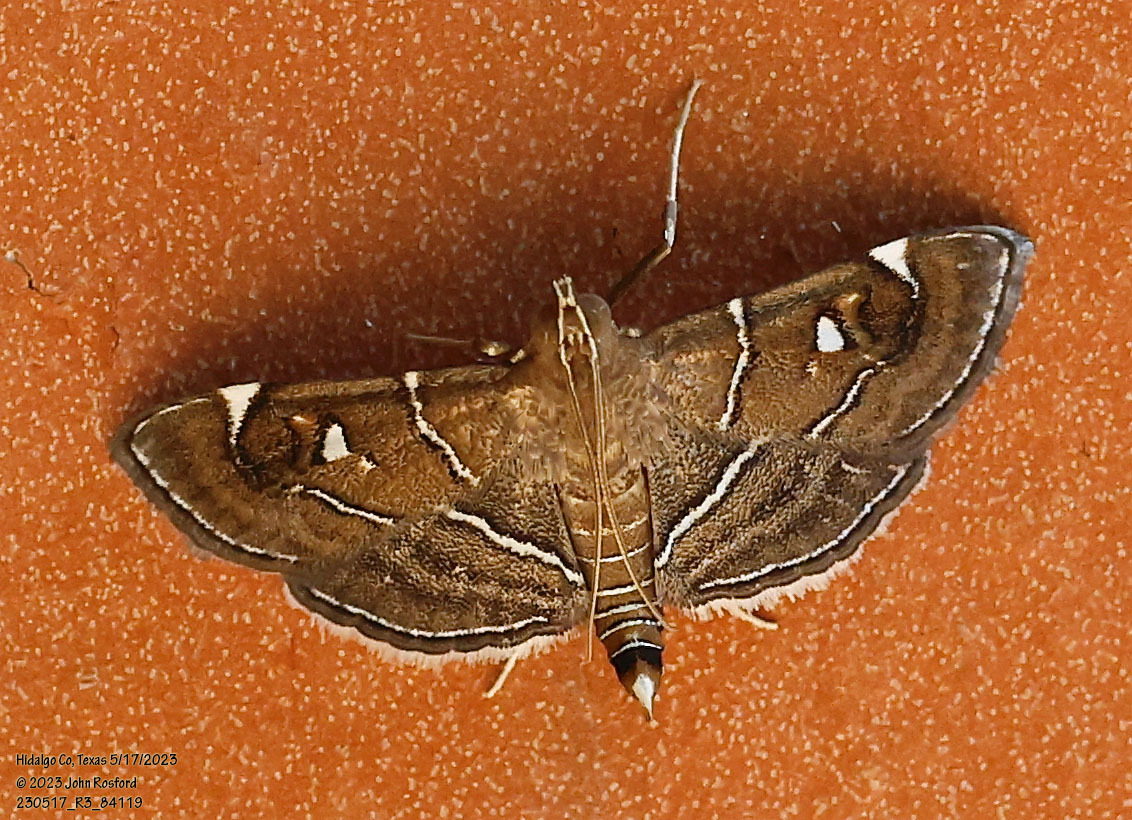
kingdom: Animalia
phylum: Arthropoda
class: Insecta
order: Lepidoptera
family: Crambidae
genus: Lamprosema
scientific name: Lamprosema victoriae
